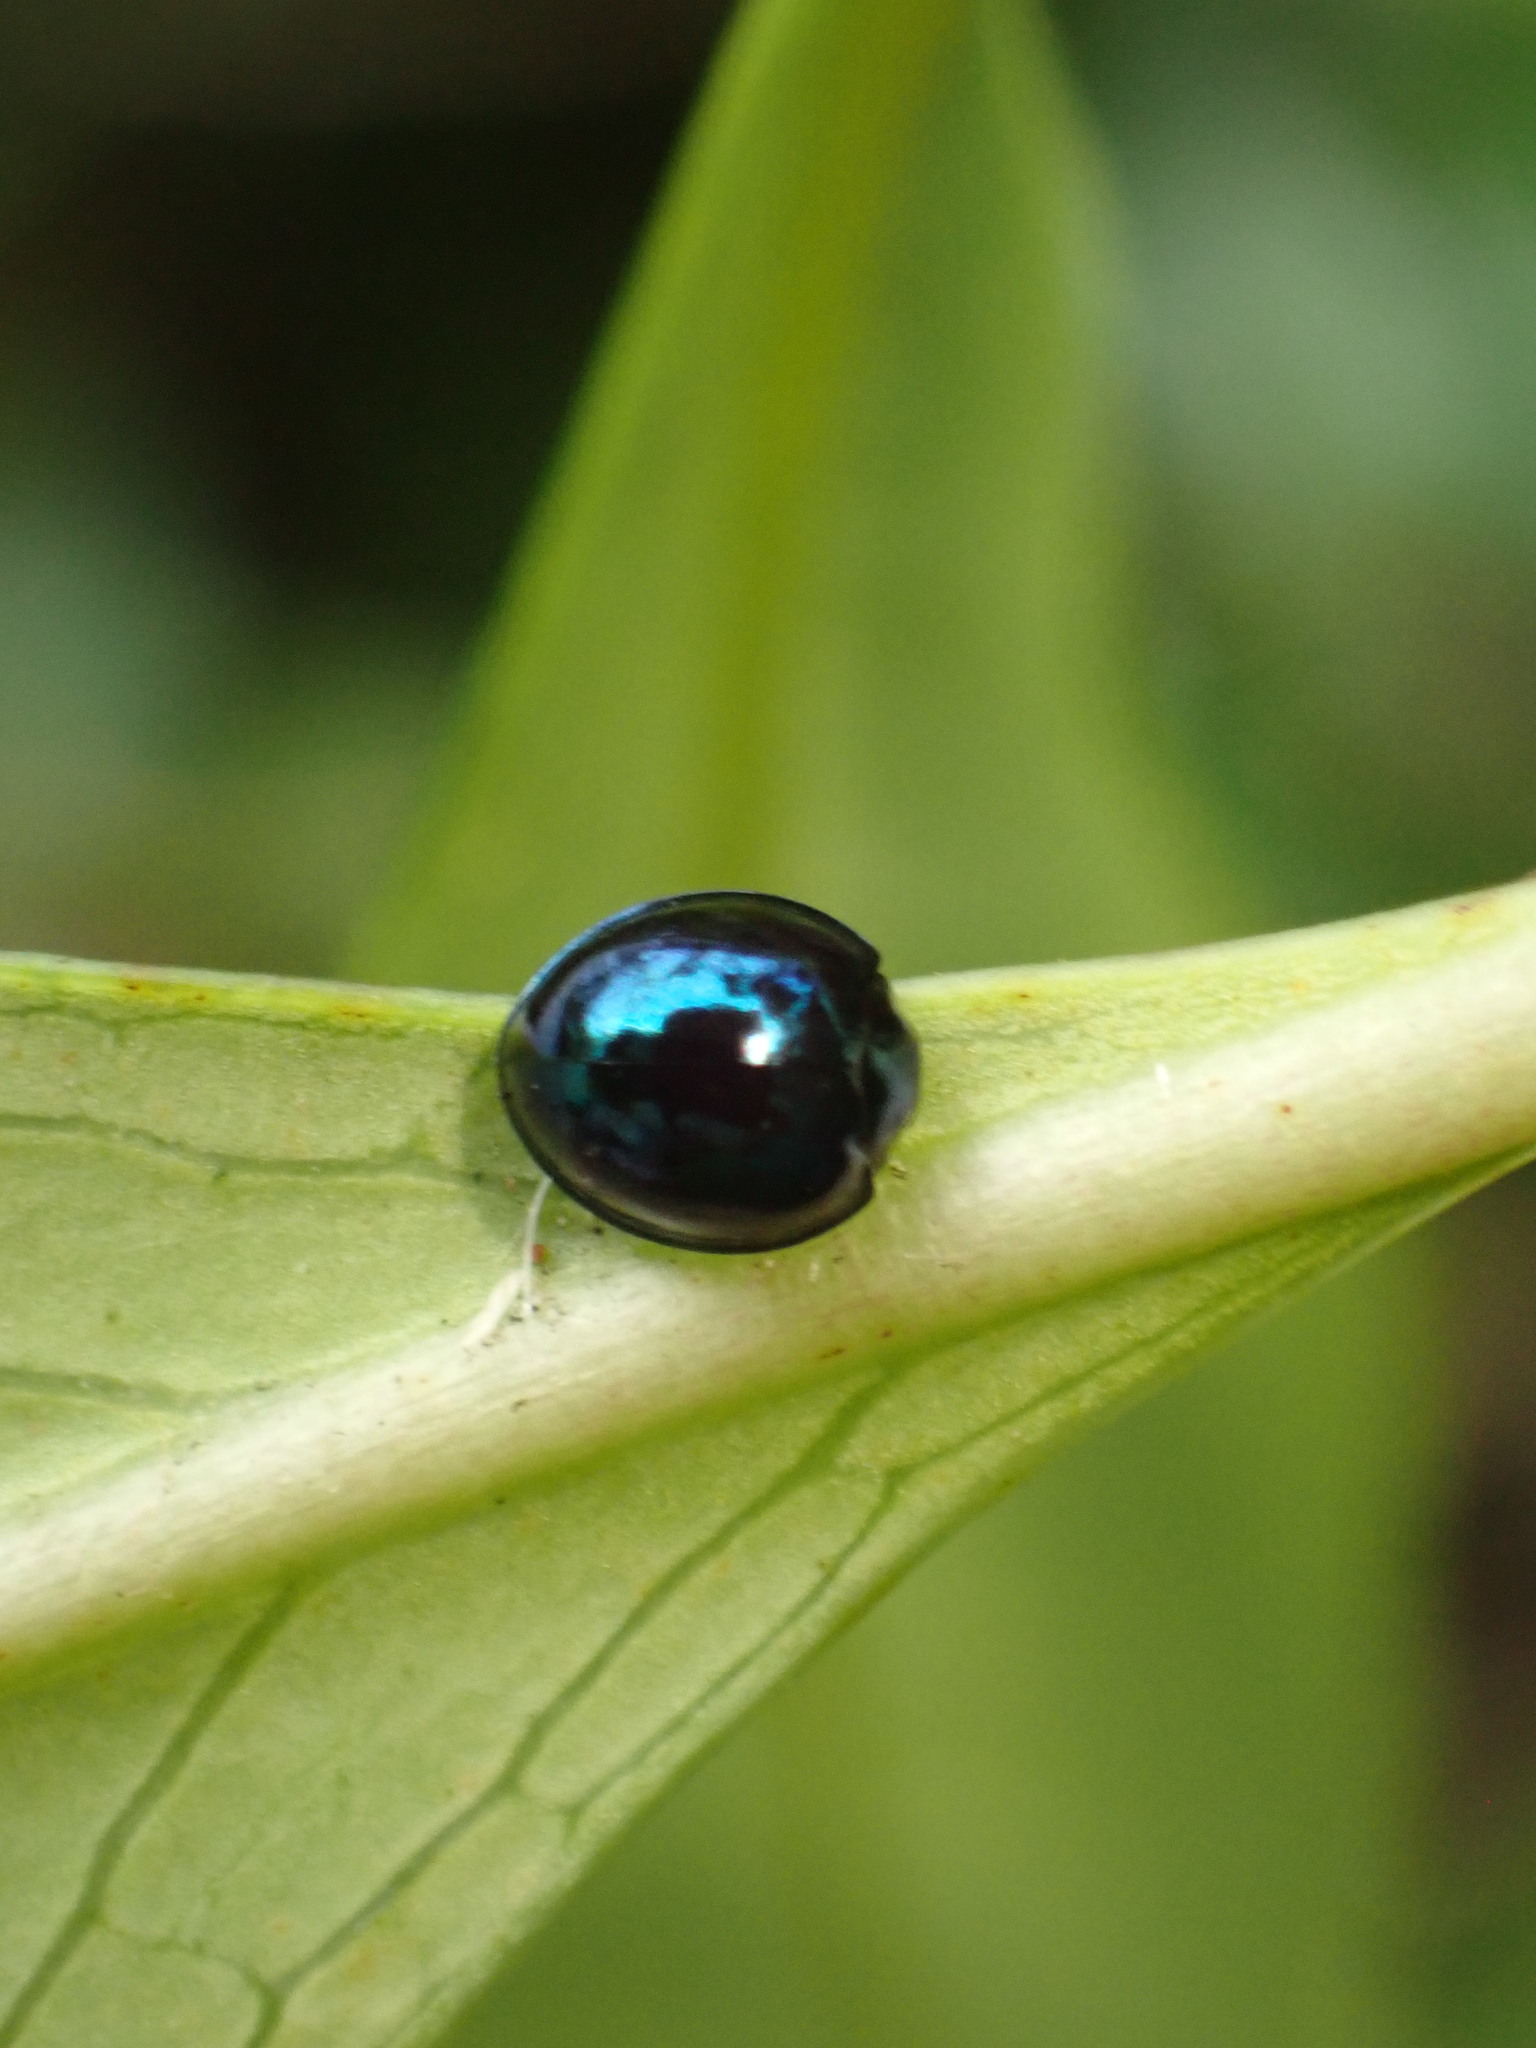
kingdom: Animalia
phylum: Arthropoda
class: Insecta
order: Coleoptera
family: Coccinellidae
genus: Halmus
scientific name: Halmus chalybeus
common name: Steel blue ladybird beetle
